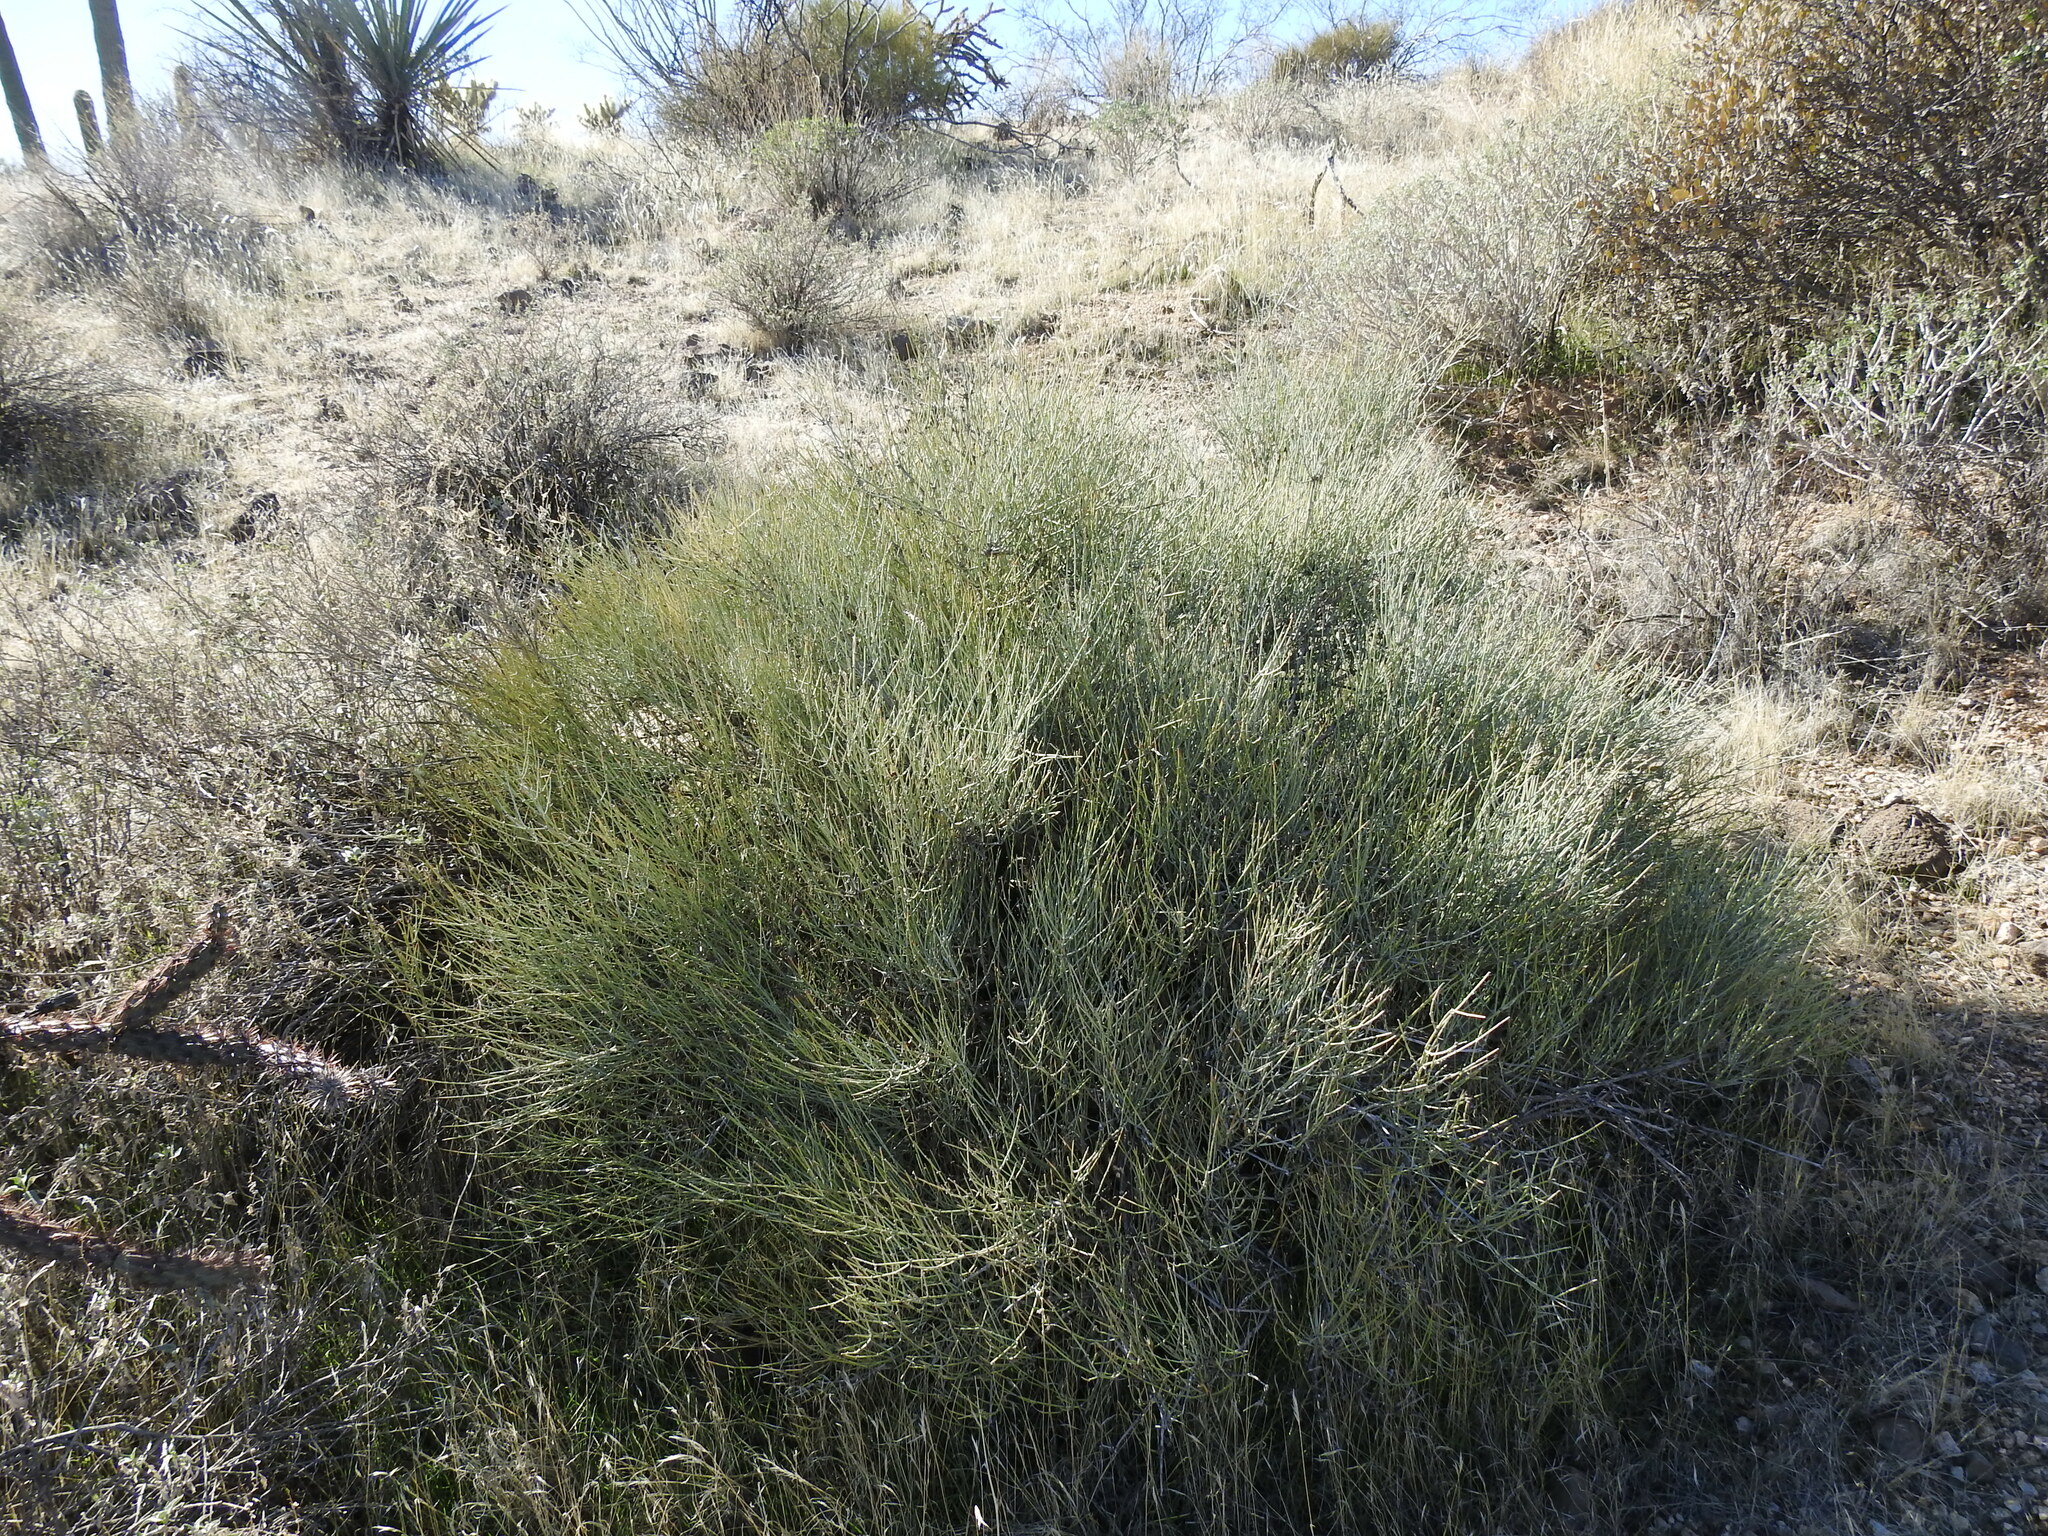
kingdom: Plantae
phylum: Tracheophyta
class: Gnetopsida
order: Ephedrales
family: Ephedraceae
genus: Ephedra
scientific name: Ephedra aspera
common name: Boundary ephedra
